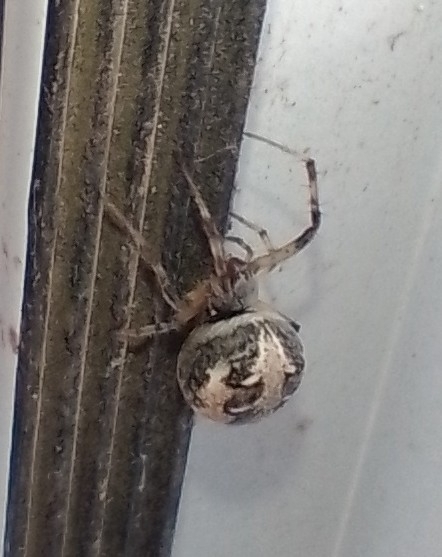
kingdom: Animalia
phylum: Arthropoda
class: Arachnida
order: Araneae
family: Araneidae
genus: Metepeira
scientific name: Metepeira
